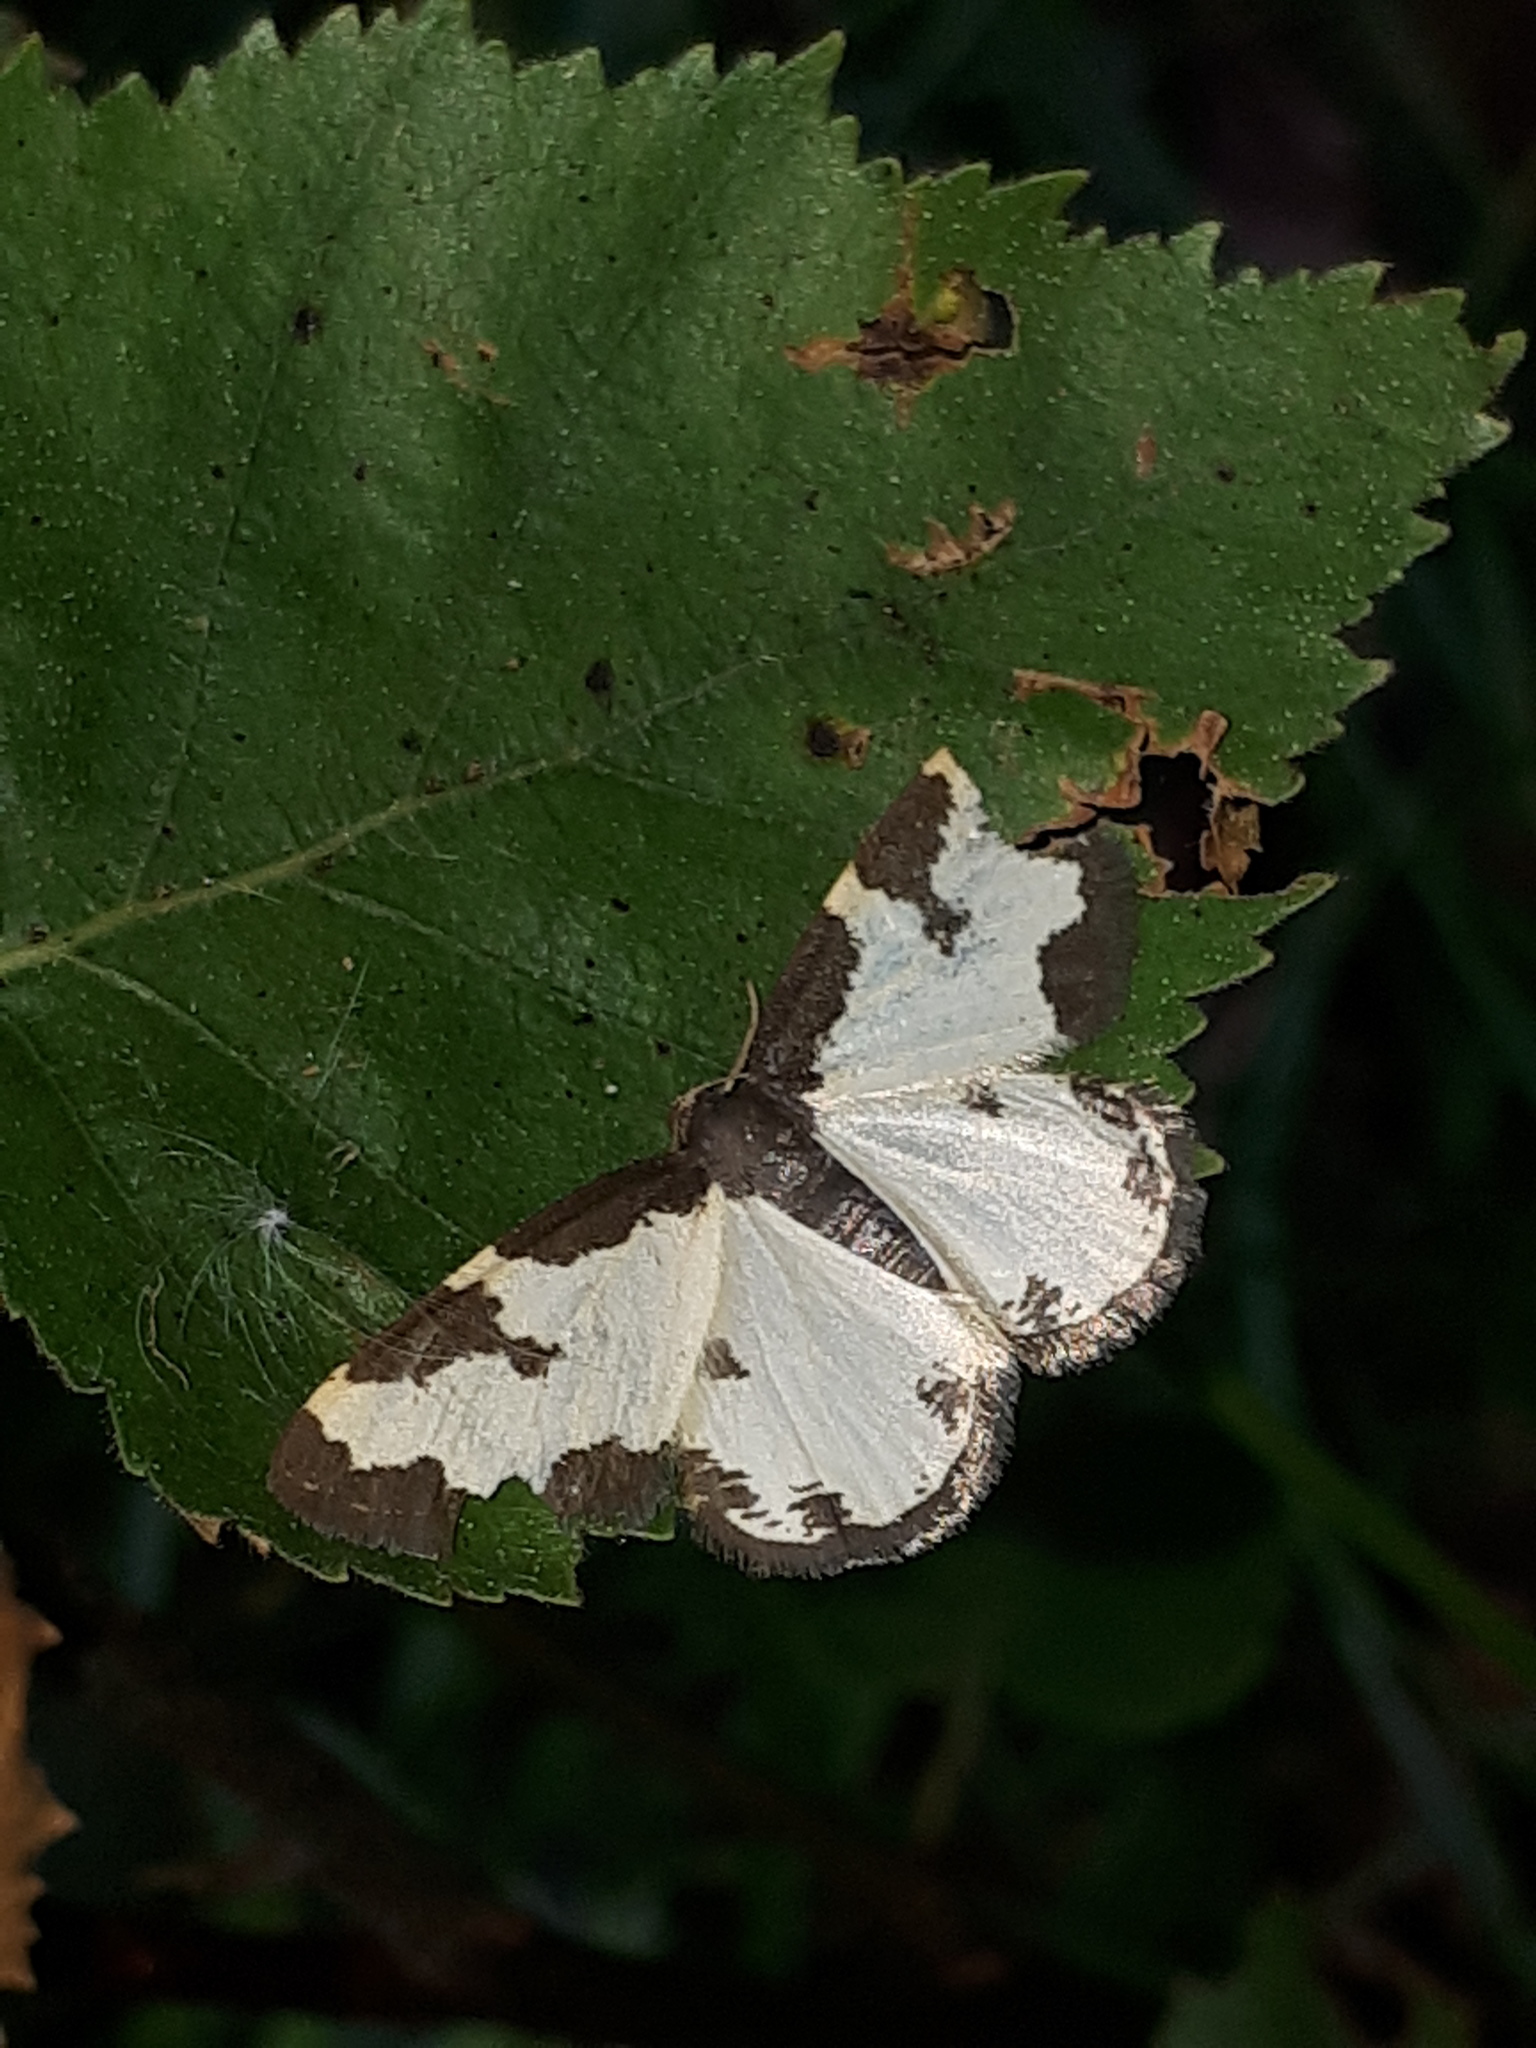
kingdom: Animalia
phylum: Arthropoda
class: Insecta
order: Lepidoptera
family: Geometridae
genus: Lomaspilis
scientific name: Lomaspilis marginata
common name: Clouded border
